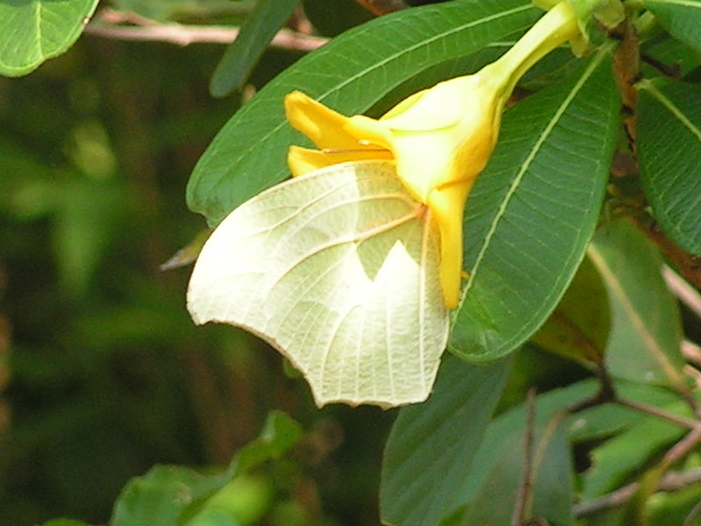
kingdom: Plantae
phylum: Tracheophyta
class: Magnoliopsida
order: Gentianales
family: Apocynaceae
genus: Cascabela
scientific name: Cascabela ovata
